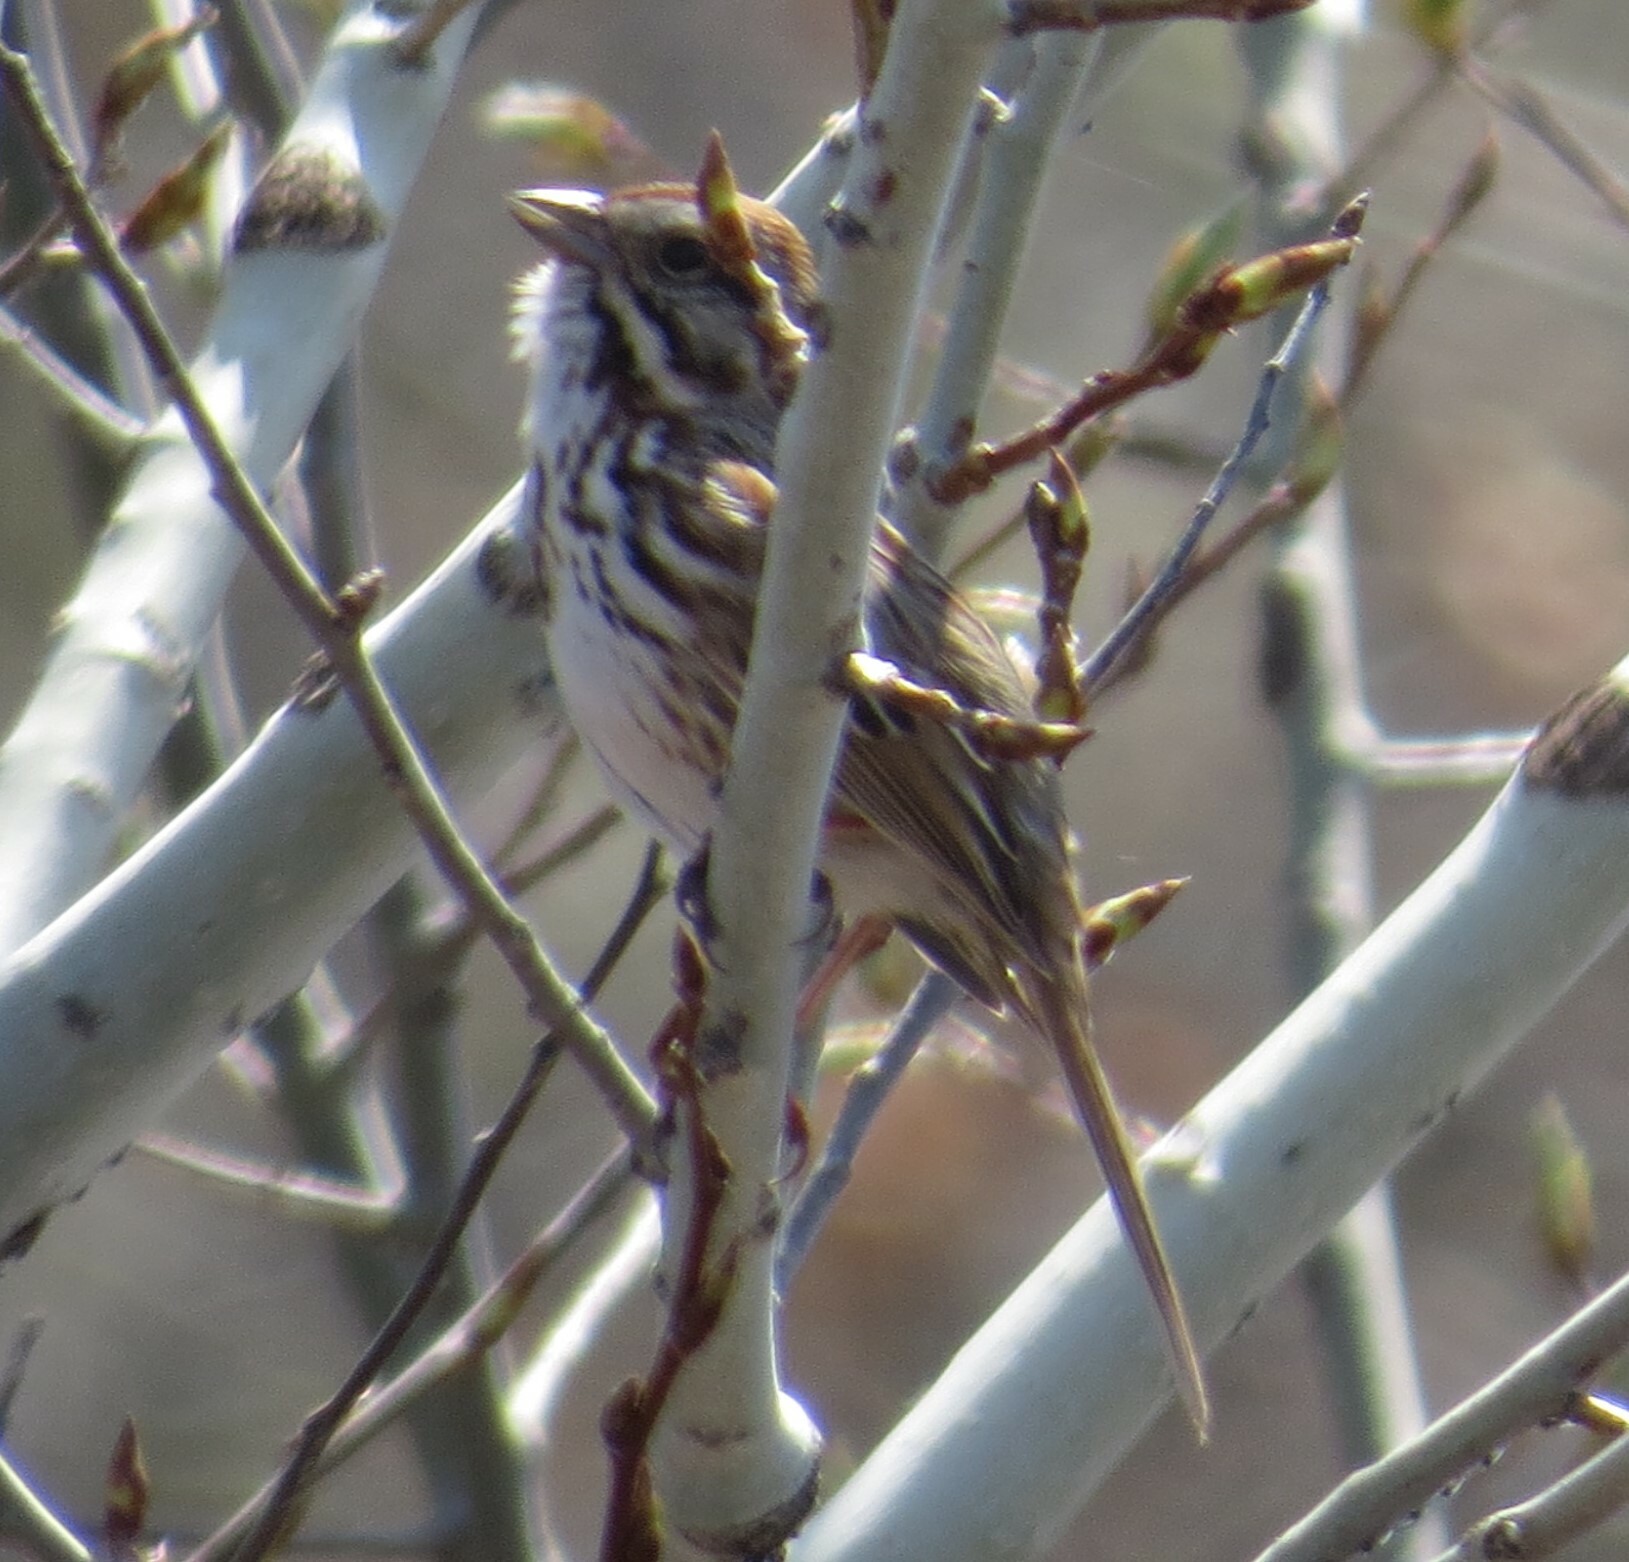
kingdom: Animalia
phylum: Chordata
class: Aves
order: Passeriformes
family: Passerellidae
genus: Melospiza
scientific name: Melospiza melodia
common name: Song sparrow
